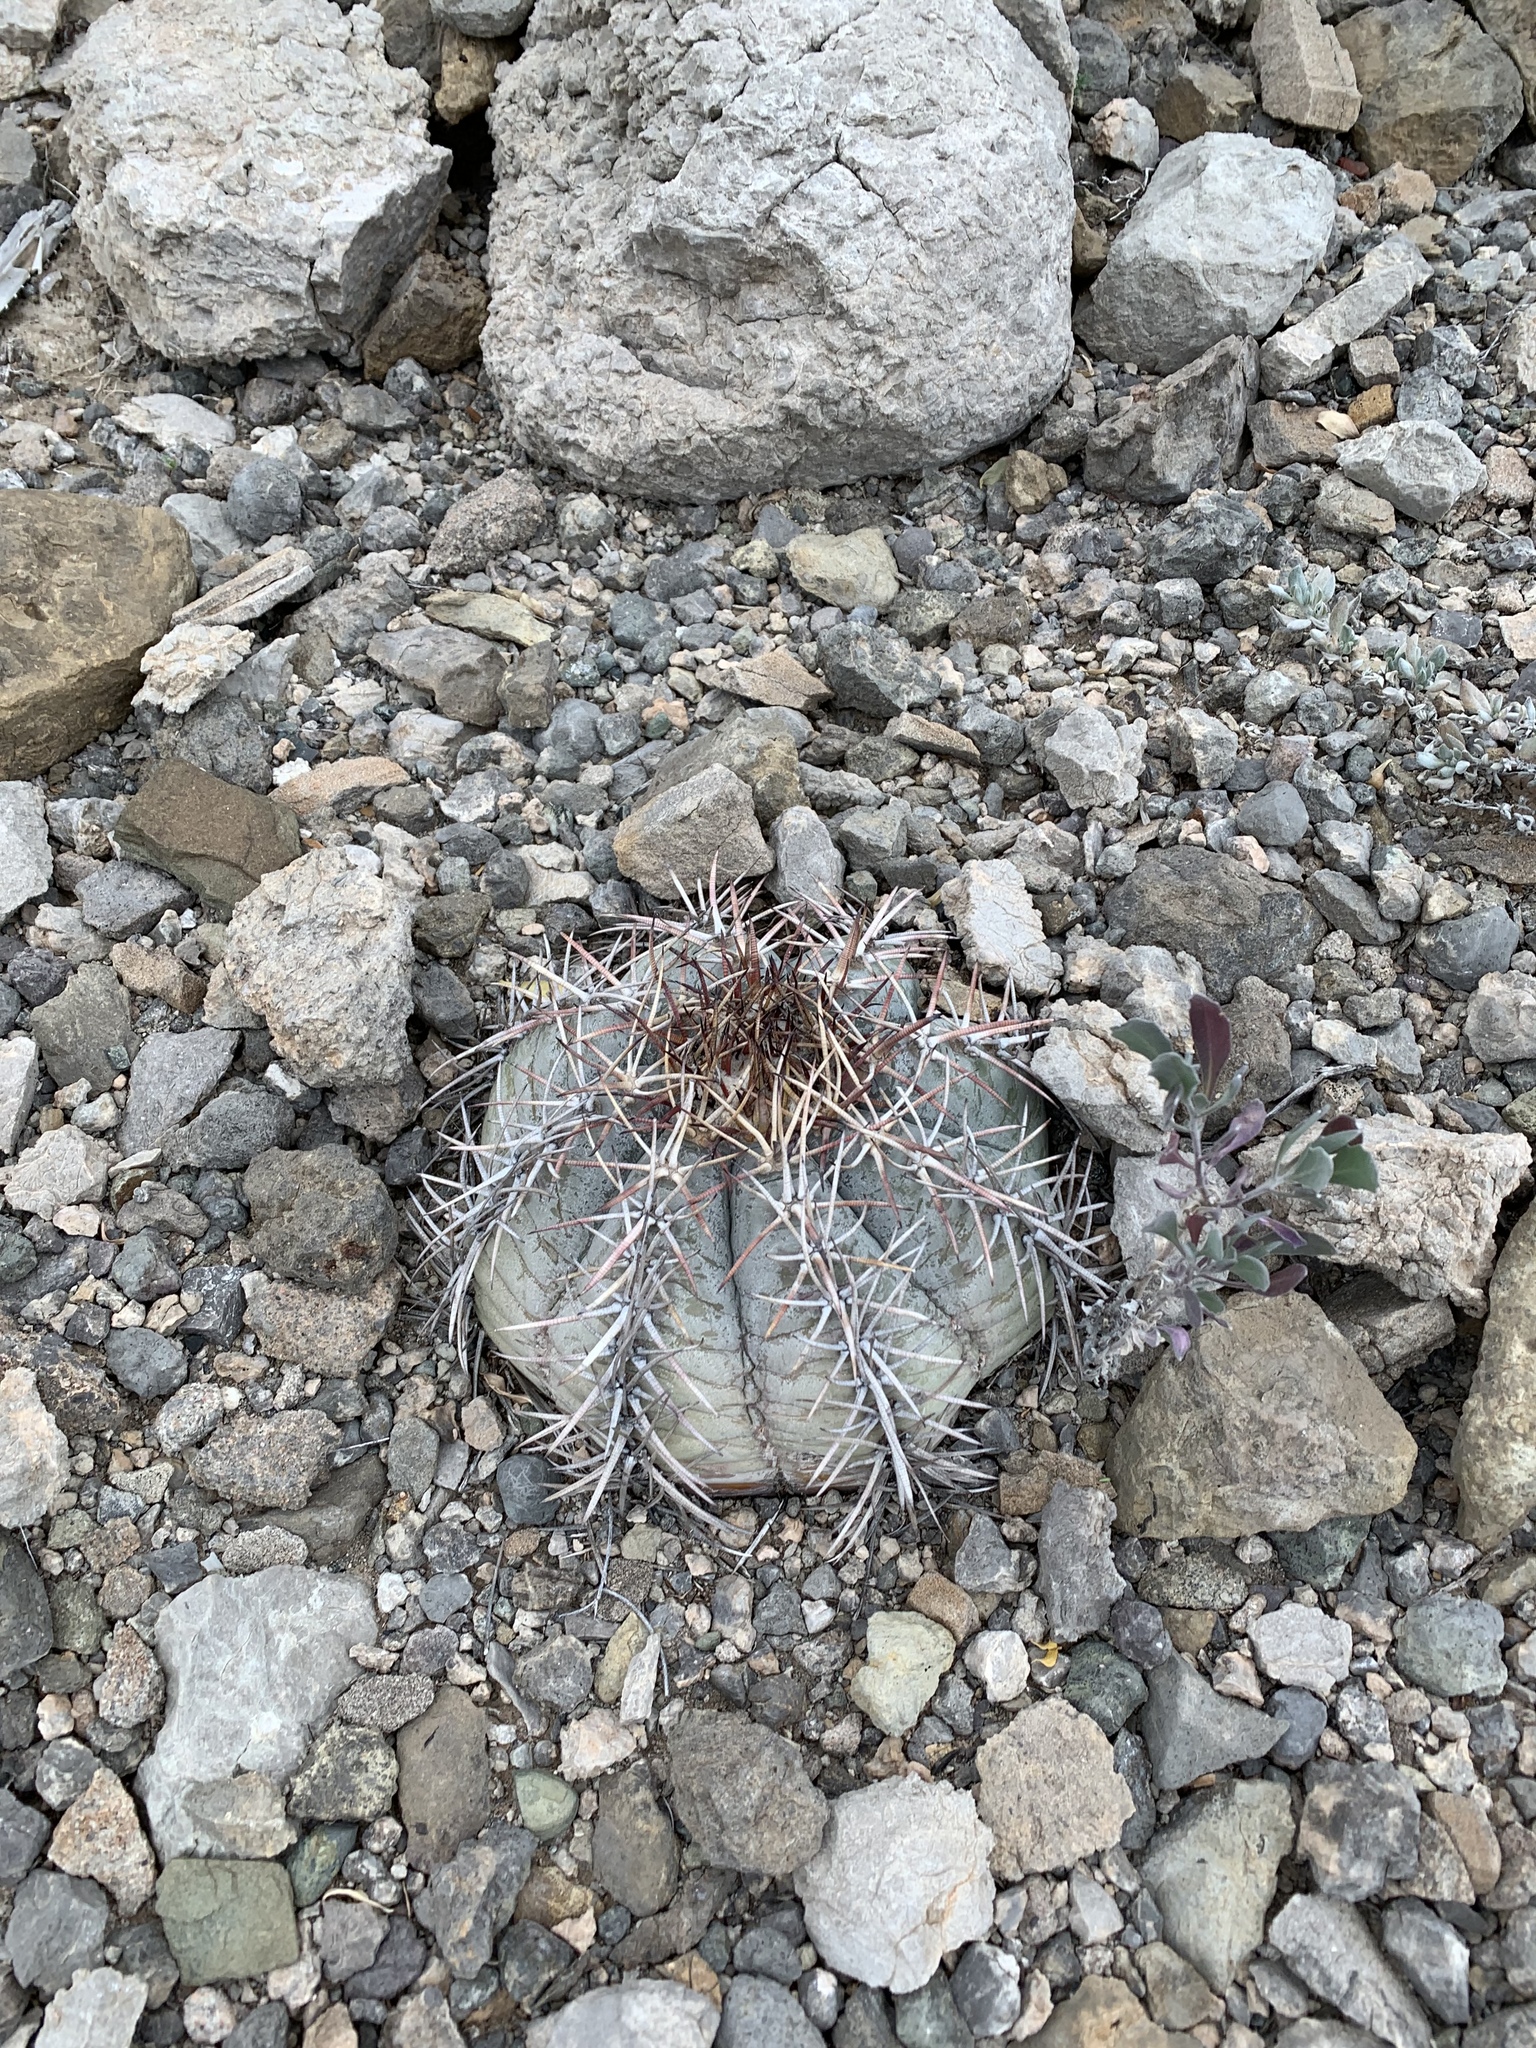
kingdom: Plantae
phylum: Tracheophyta
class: Magnoliopsida
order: Caryophyllales
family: Cactaceae
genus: Echinocactus
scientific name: Echinocactus horizonthalonius
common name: Devilshead
